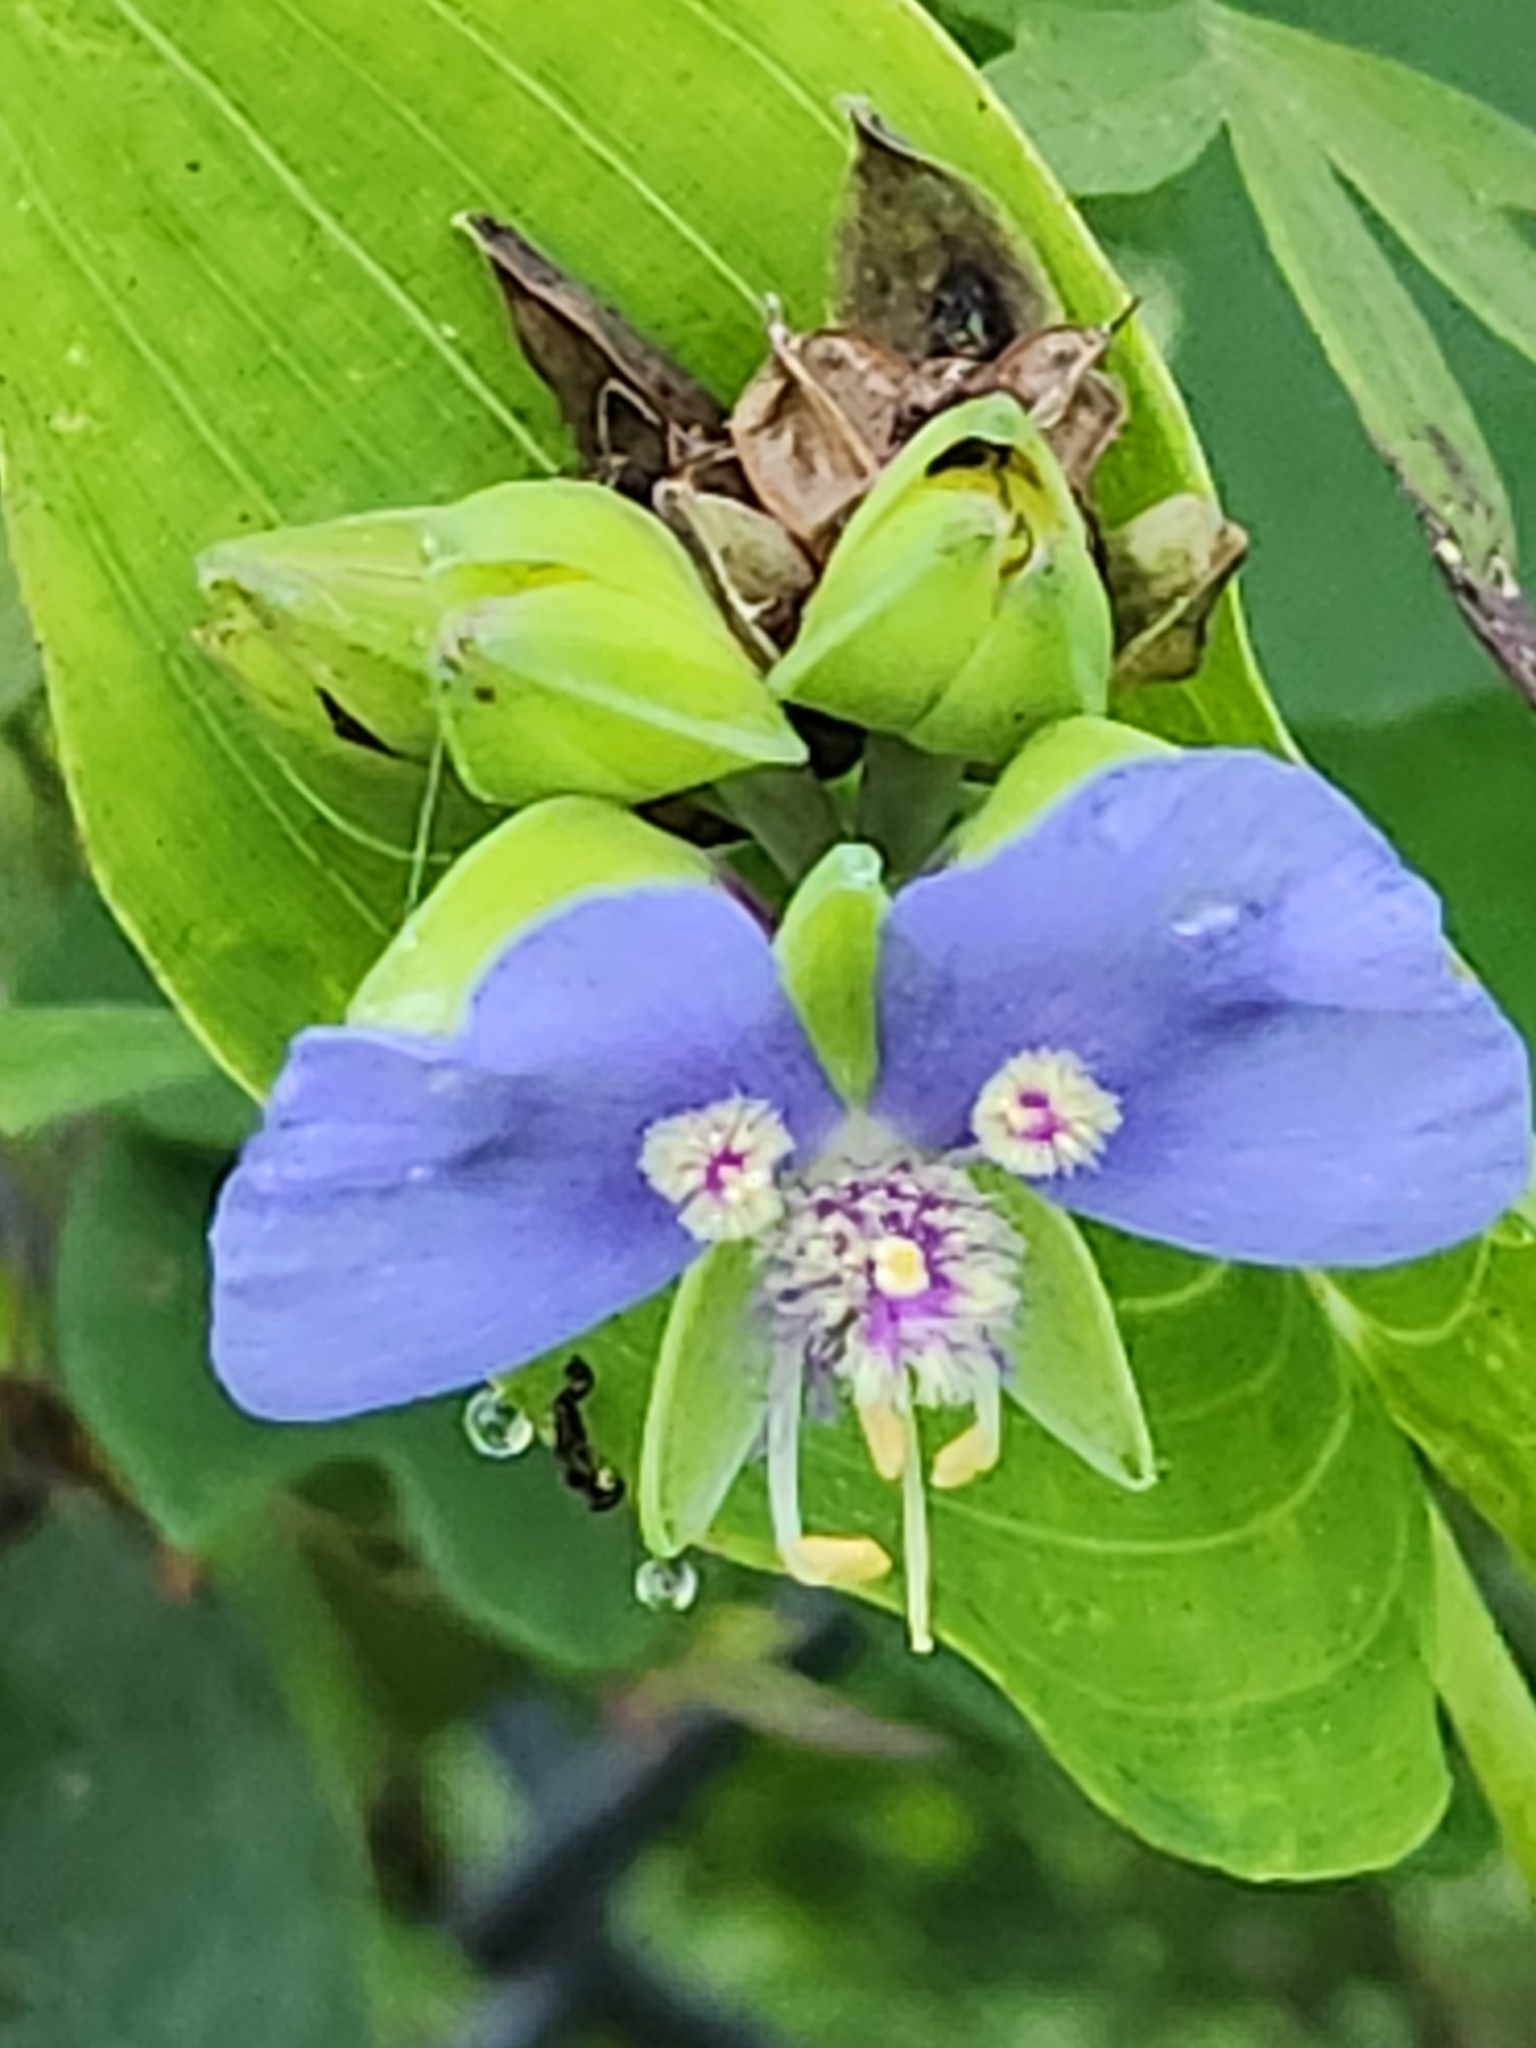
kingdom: Plantae
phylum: Tracheophyta
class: Liliopsida
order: Commelinales
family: Commelinaceae
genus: Tinantia
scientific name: Tinantia anomala
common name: False dayflower
